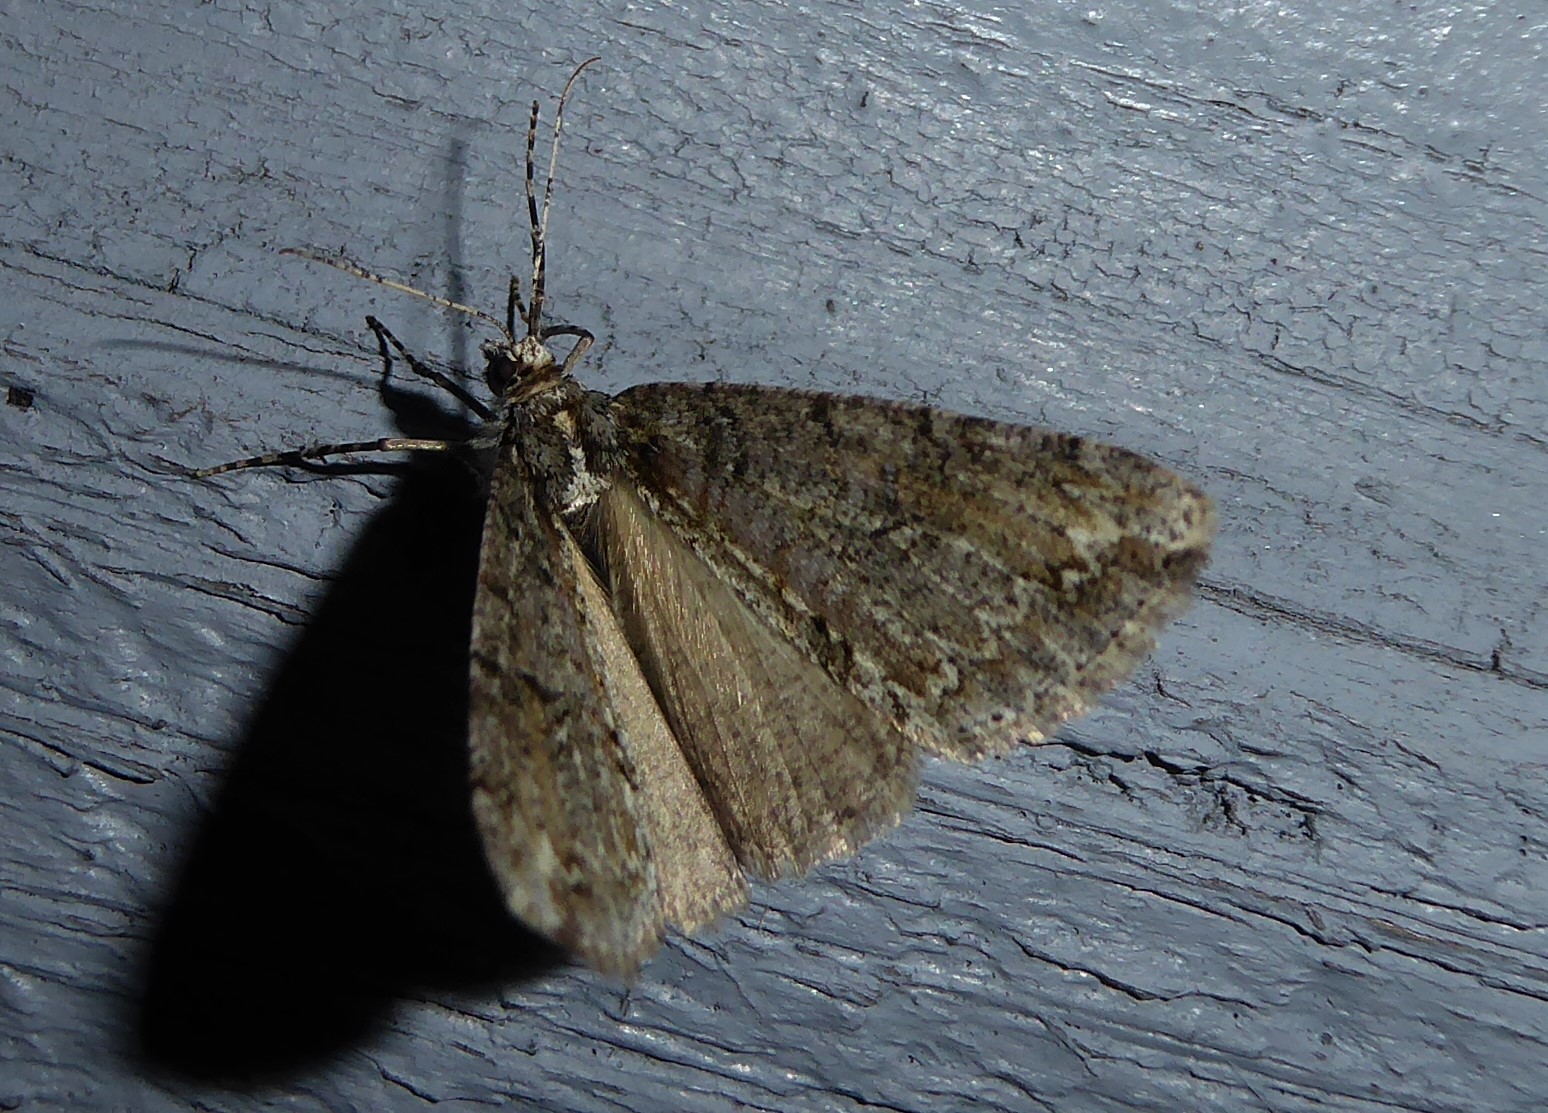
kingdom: Animalia
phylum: Arthropoda
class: Insecta
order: Lepidoptera
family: Geometridae
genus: Pseudocoremia
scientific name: Pseudocoremia suavis
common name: Common forest looper
